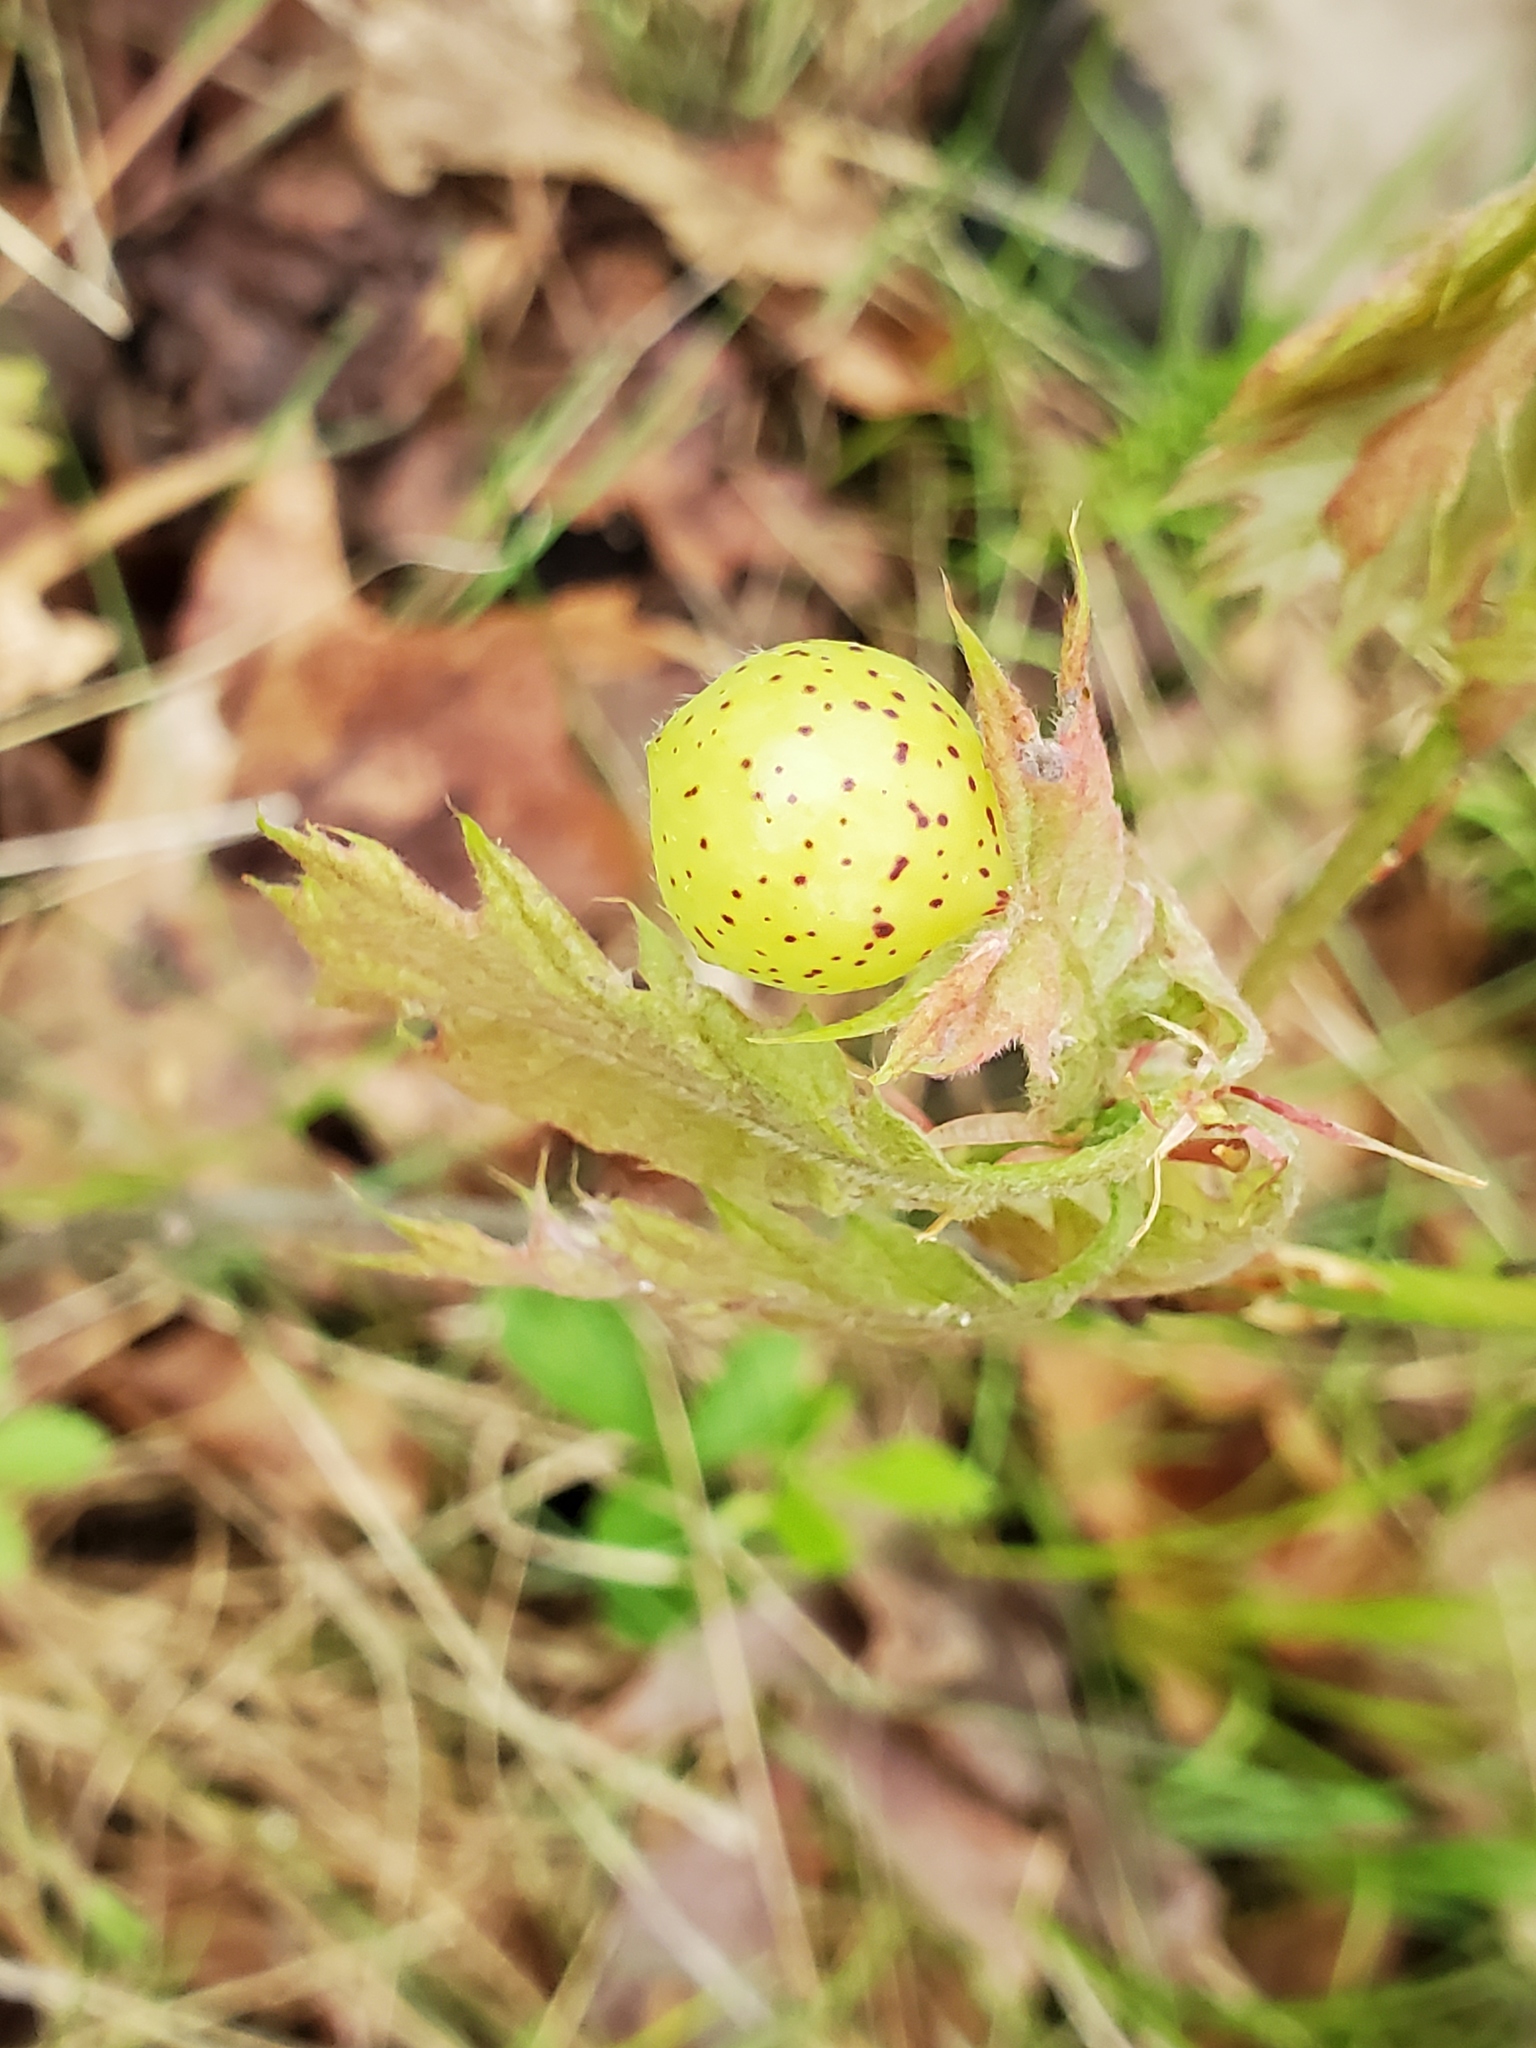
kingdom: Animalia
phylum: Arthropoda
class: Insecta
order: Hymenoptera
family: Cynipidae
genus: Amphibolips
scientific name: Amphibolips
